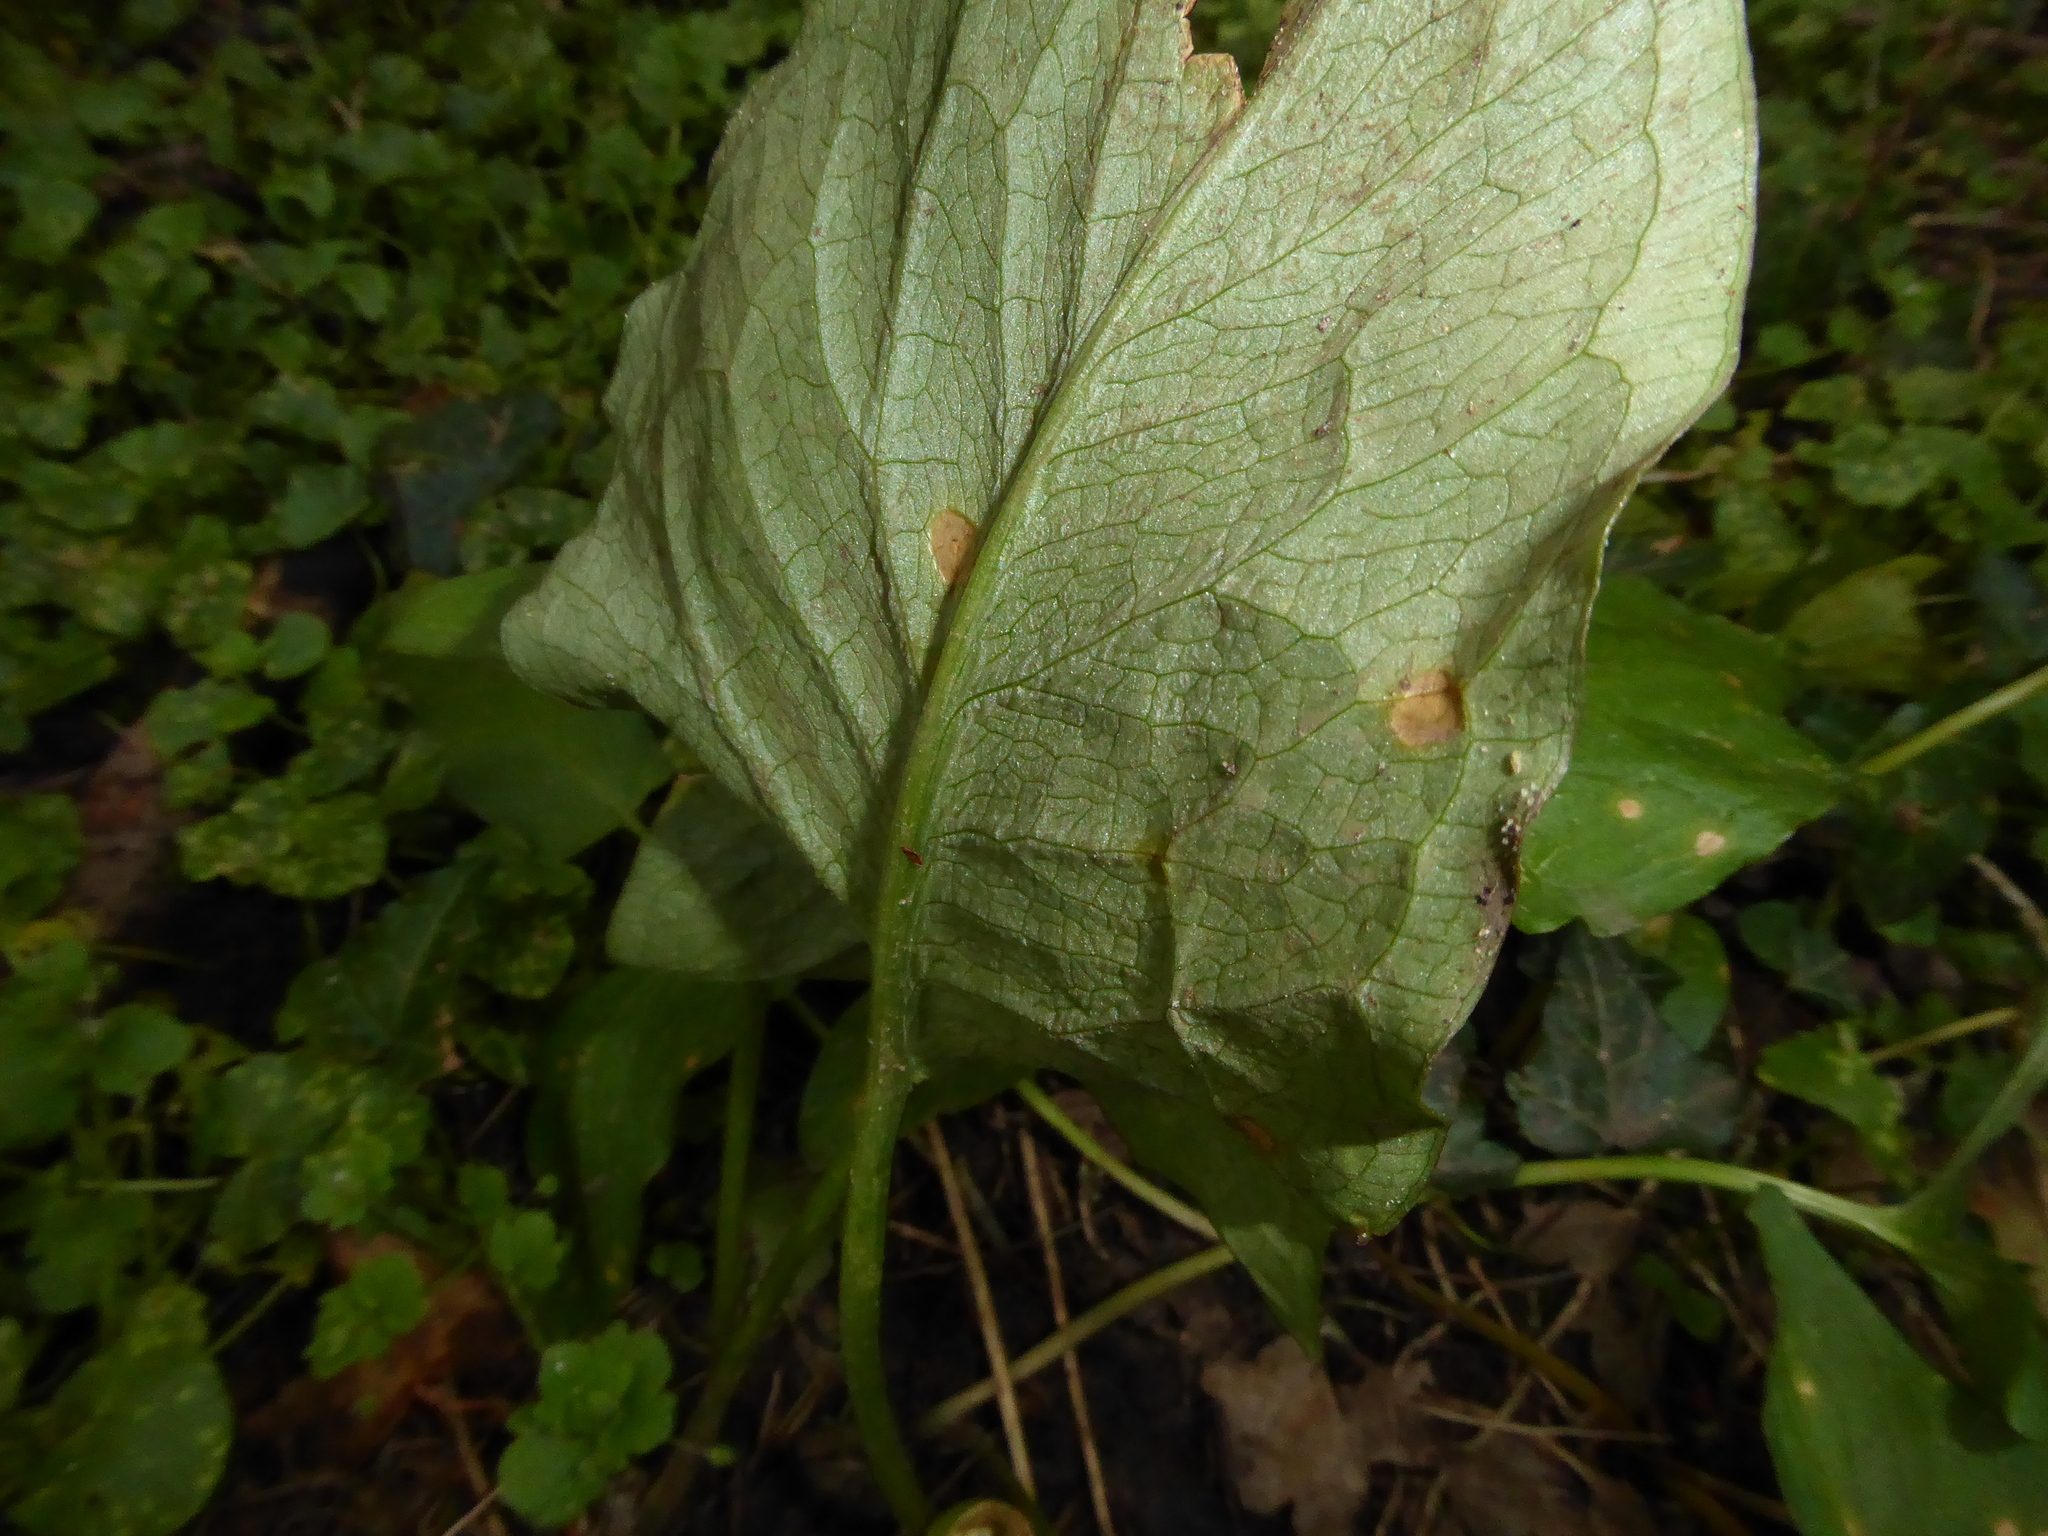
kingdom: Fungi
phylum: Ascomycota
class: Sordariomycetes
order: Glomerellales
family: Plectosphaerellaceae
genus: Spermosporina
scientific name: Spermosporina aricola
